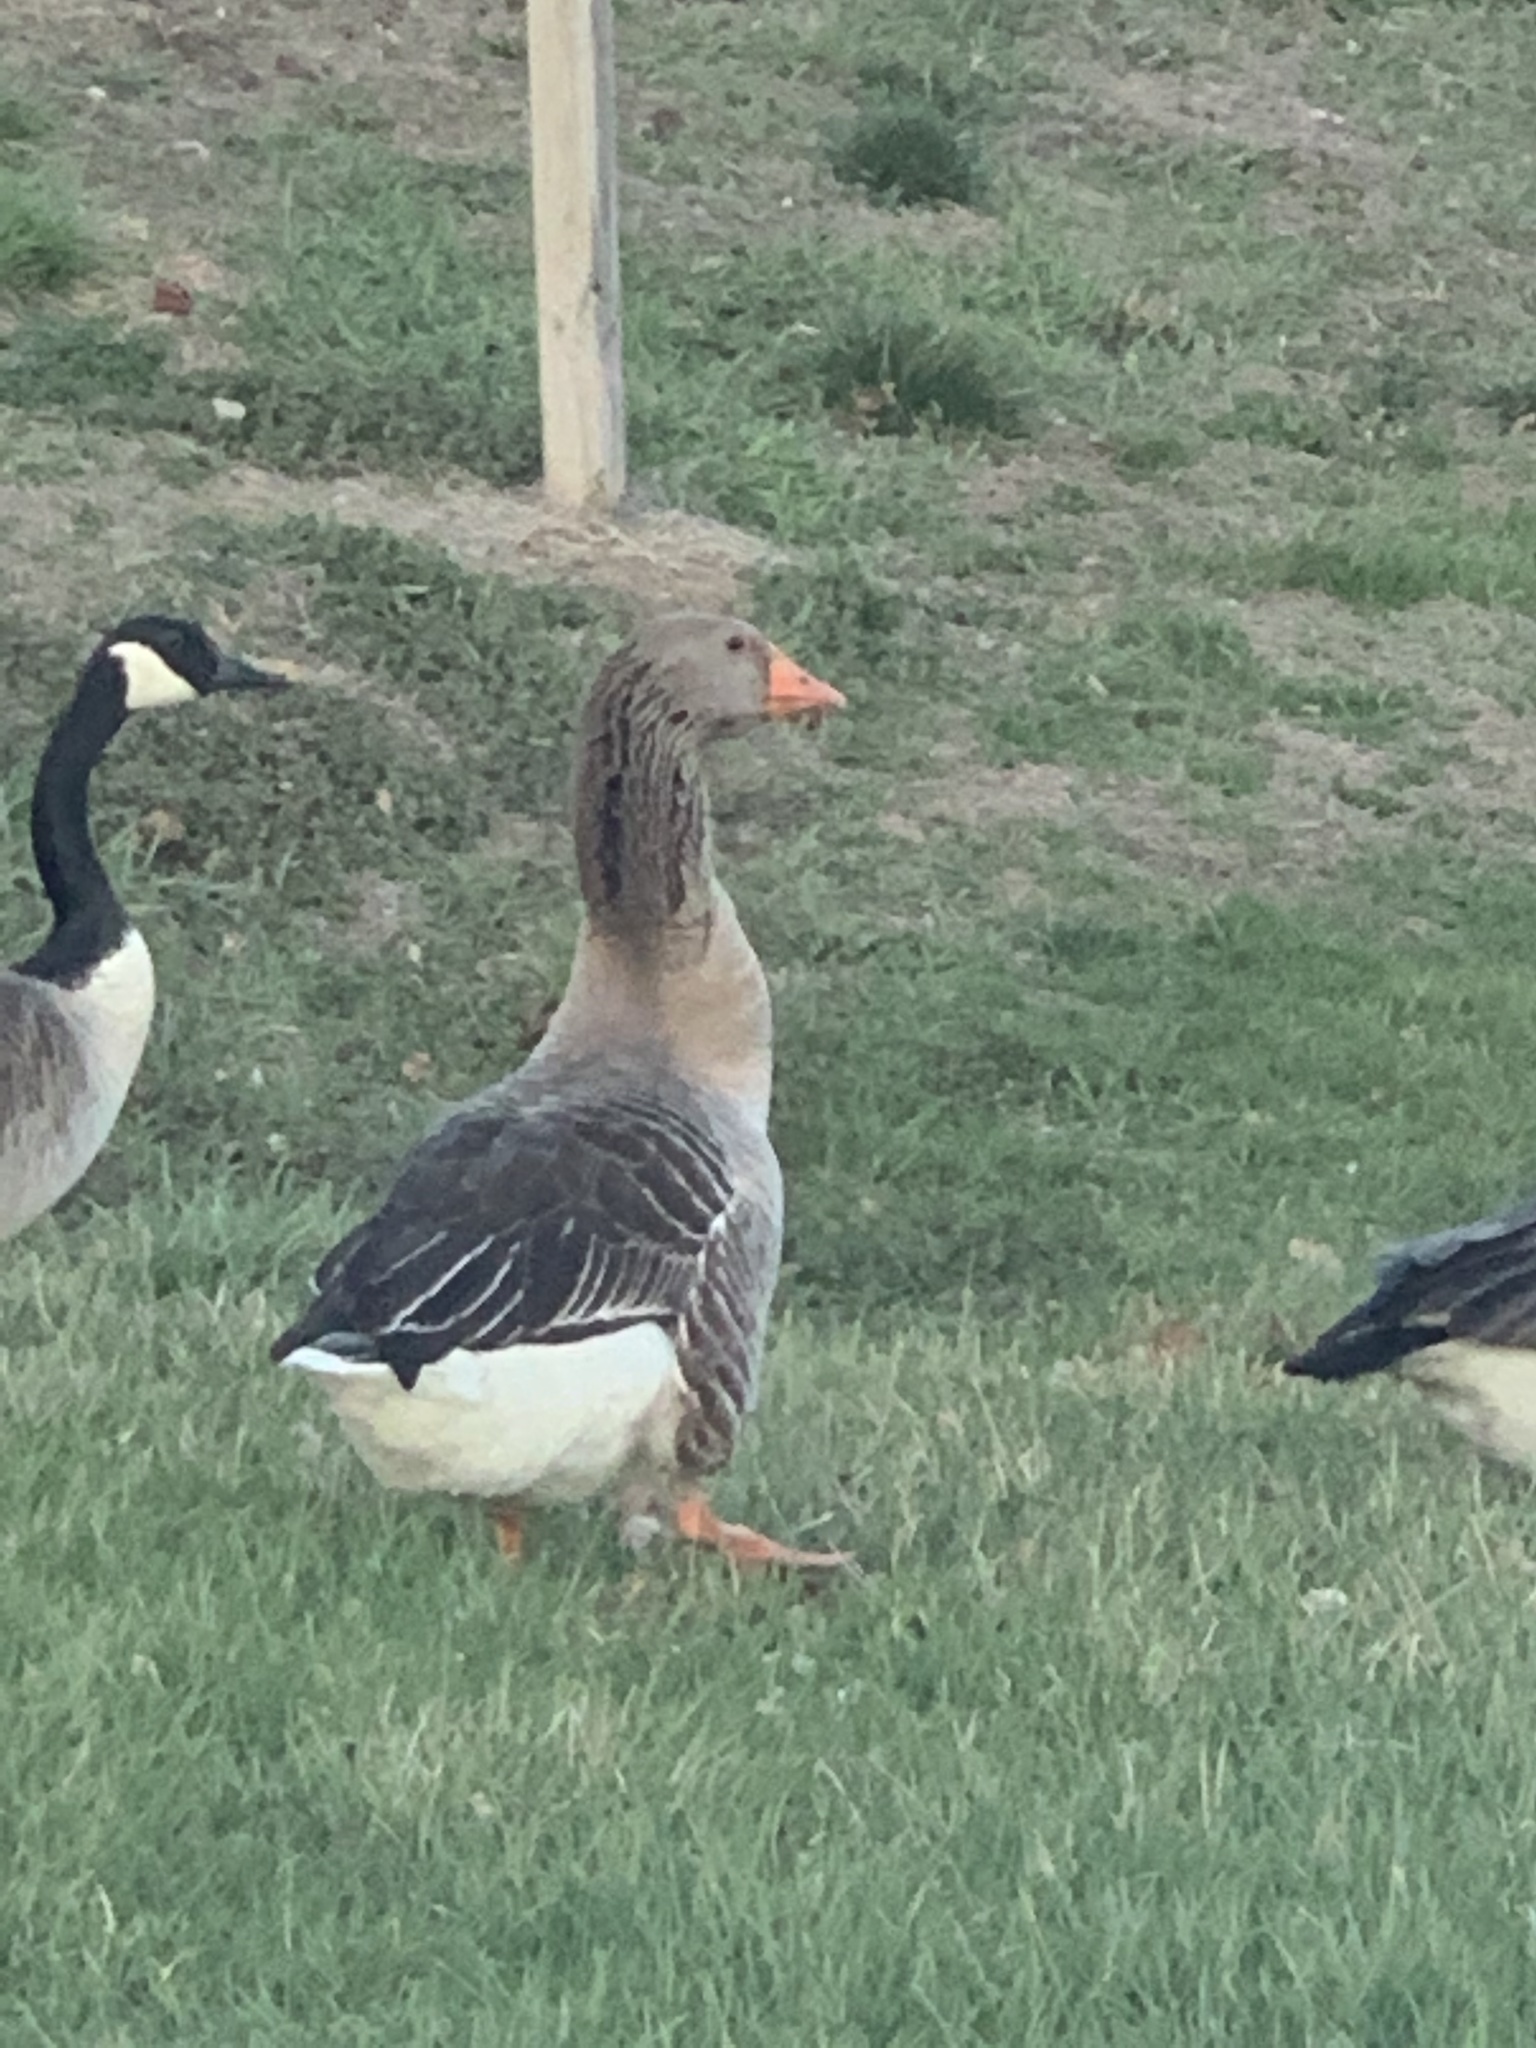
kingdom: Animalia
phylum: Chordata
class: Aves
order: Anseriformes
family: Anatidae
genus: Anser
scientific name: Anser anser
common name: Greylag goose
